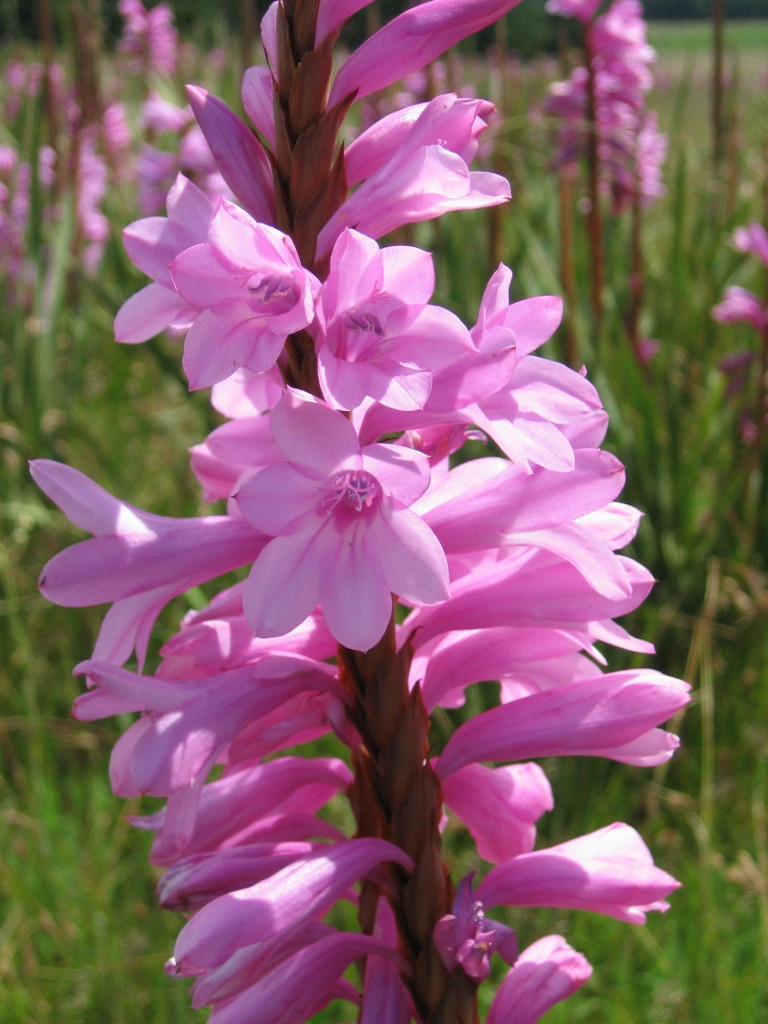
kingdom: Plantae
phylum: Tracheophyta
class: Liliopsida
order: Asparagales
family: Iridaceae
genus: Watsonia
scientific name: Watsonia confusa
